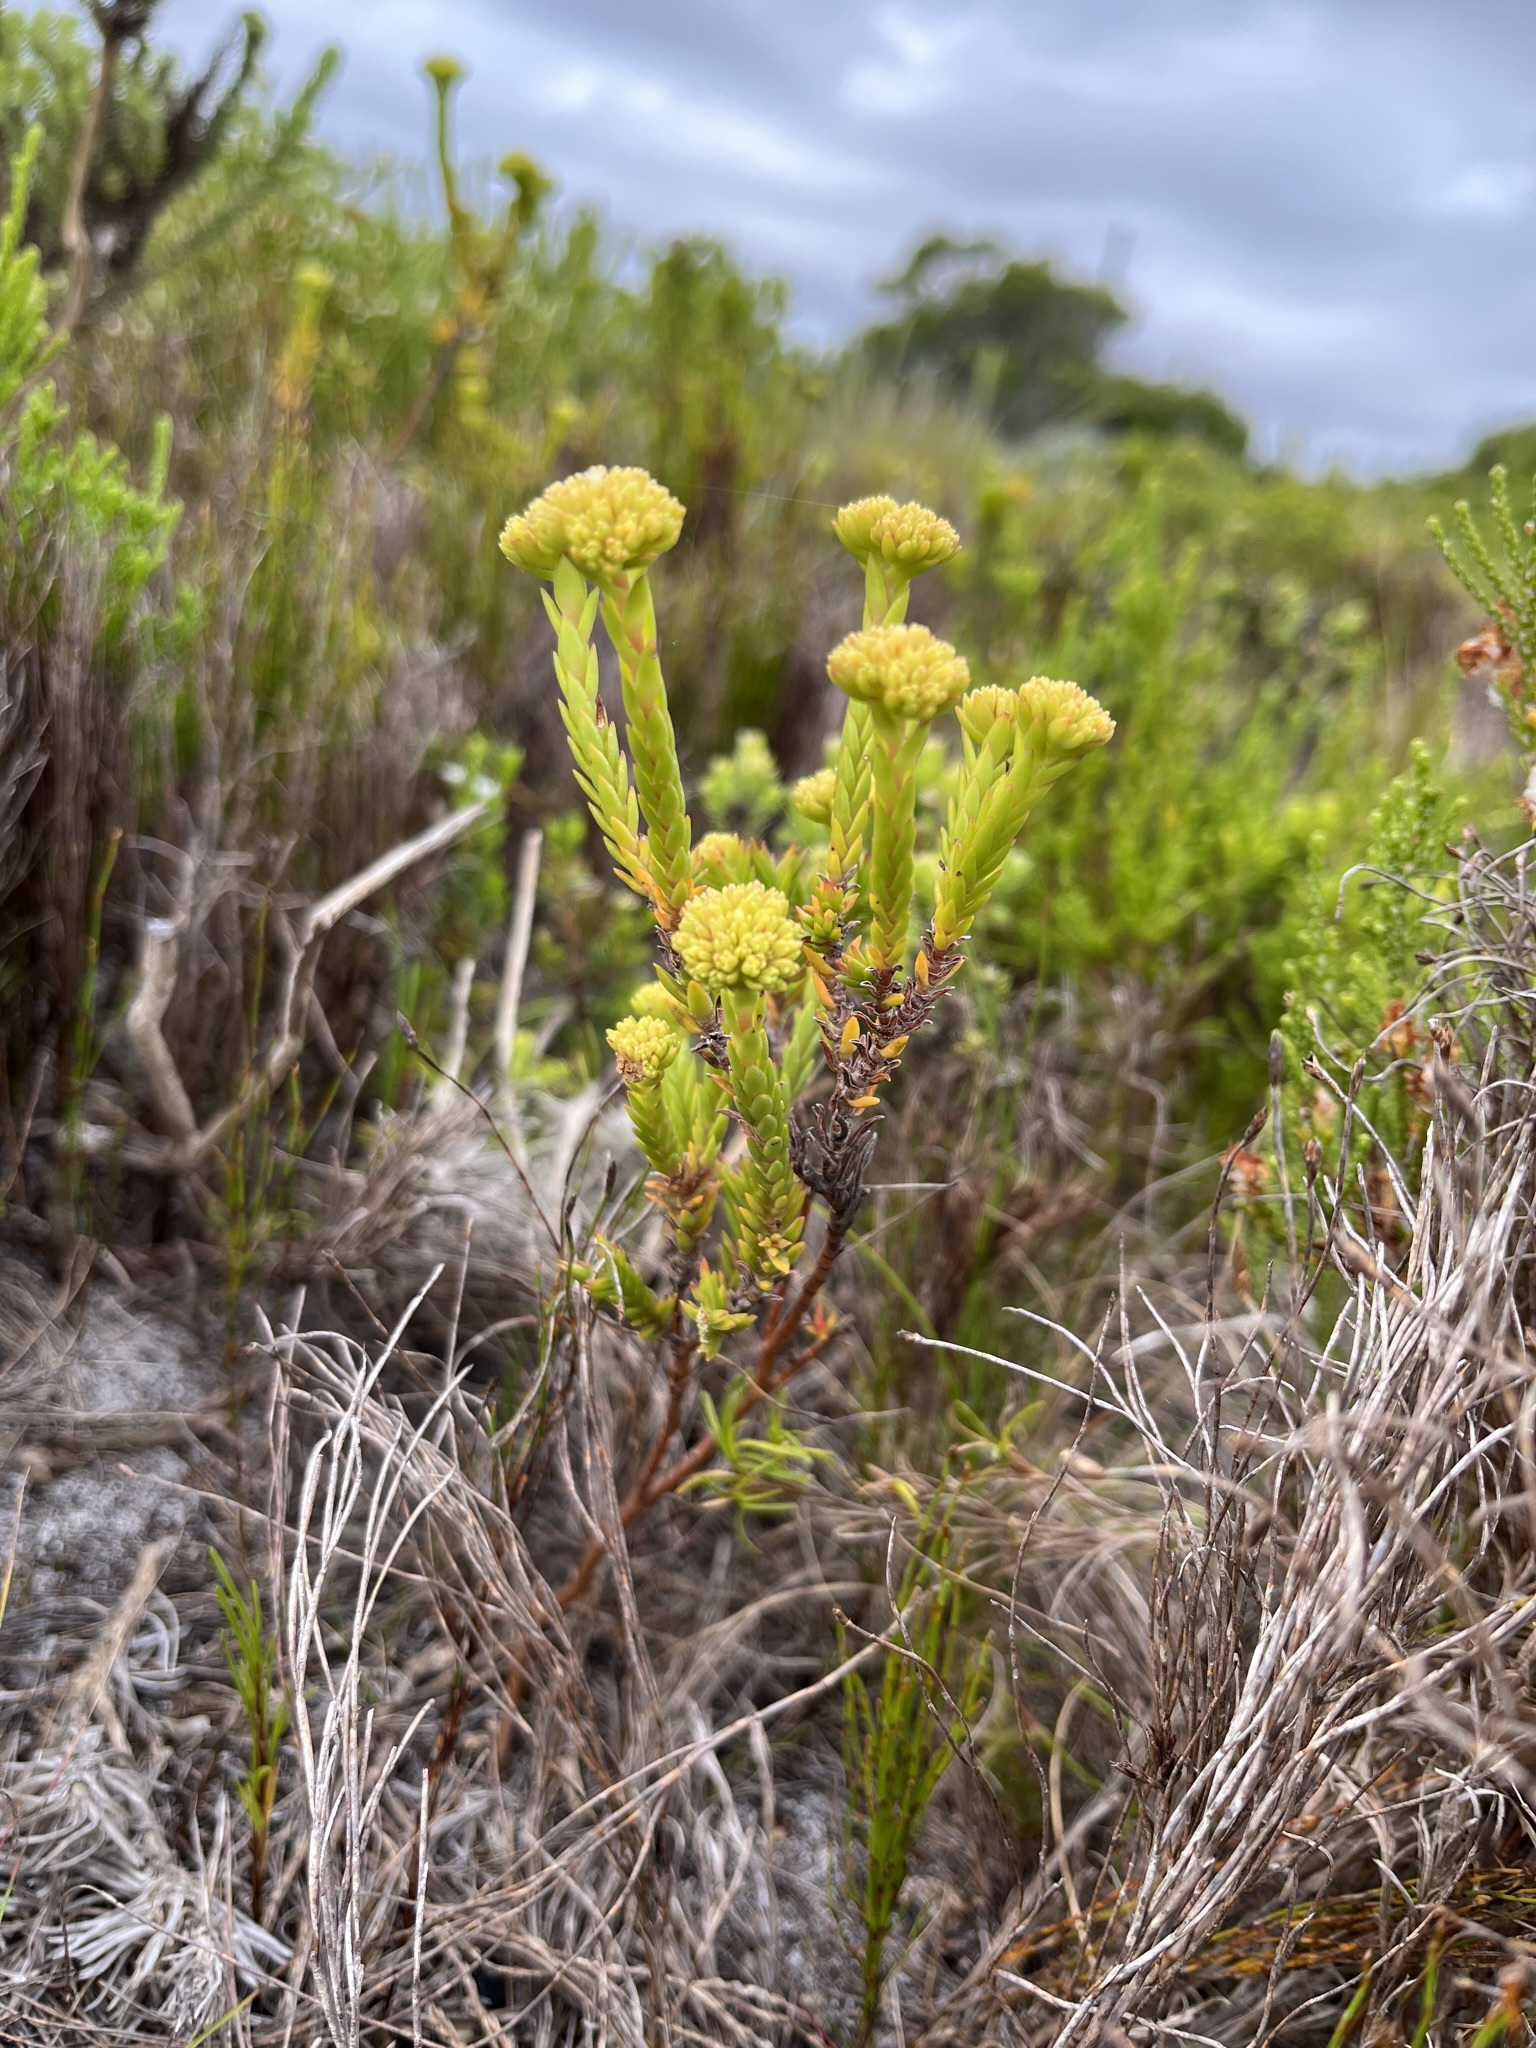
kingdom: Plantae
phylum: Tracheophyta
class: Magnoliopsida
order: Saxifragales
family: Crassulaceae
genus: Crassula
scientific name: Crassula subulata
